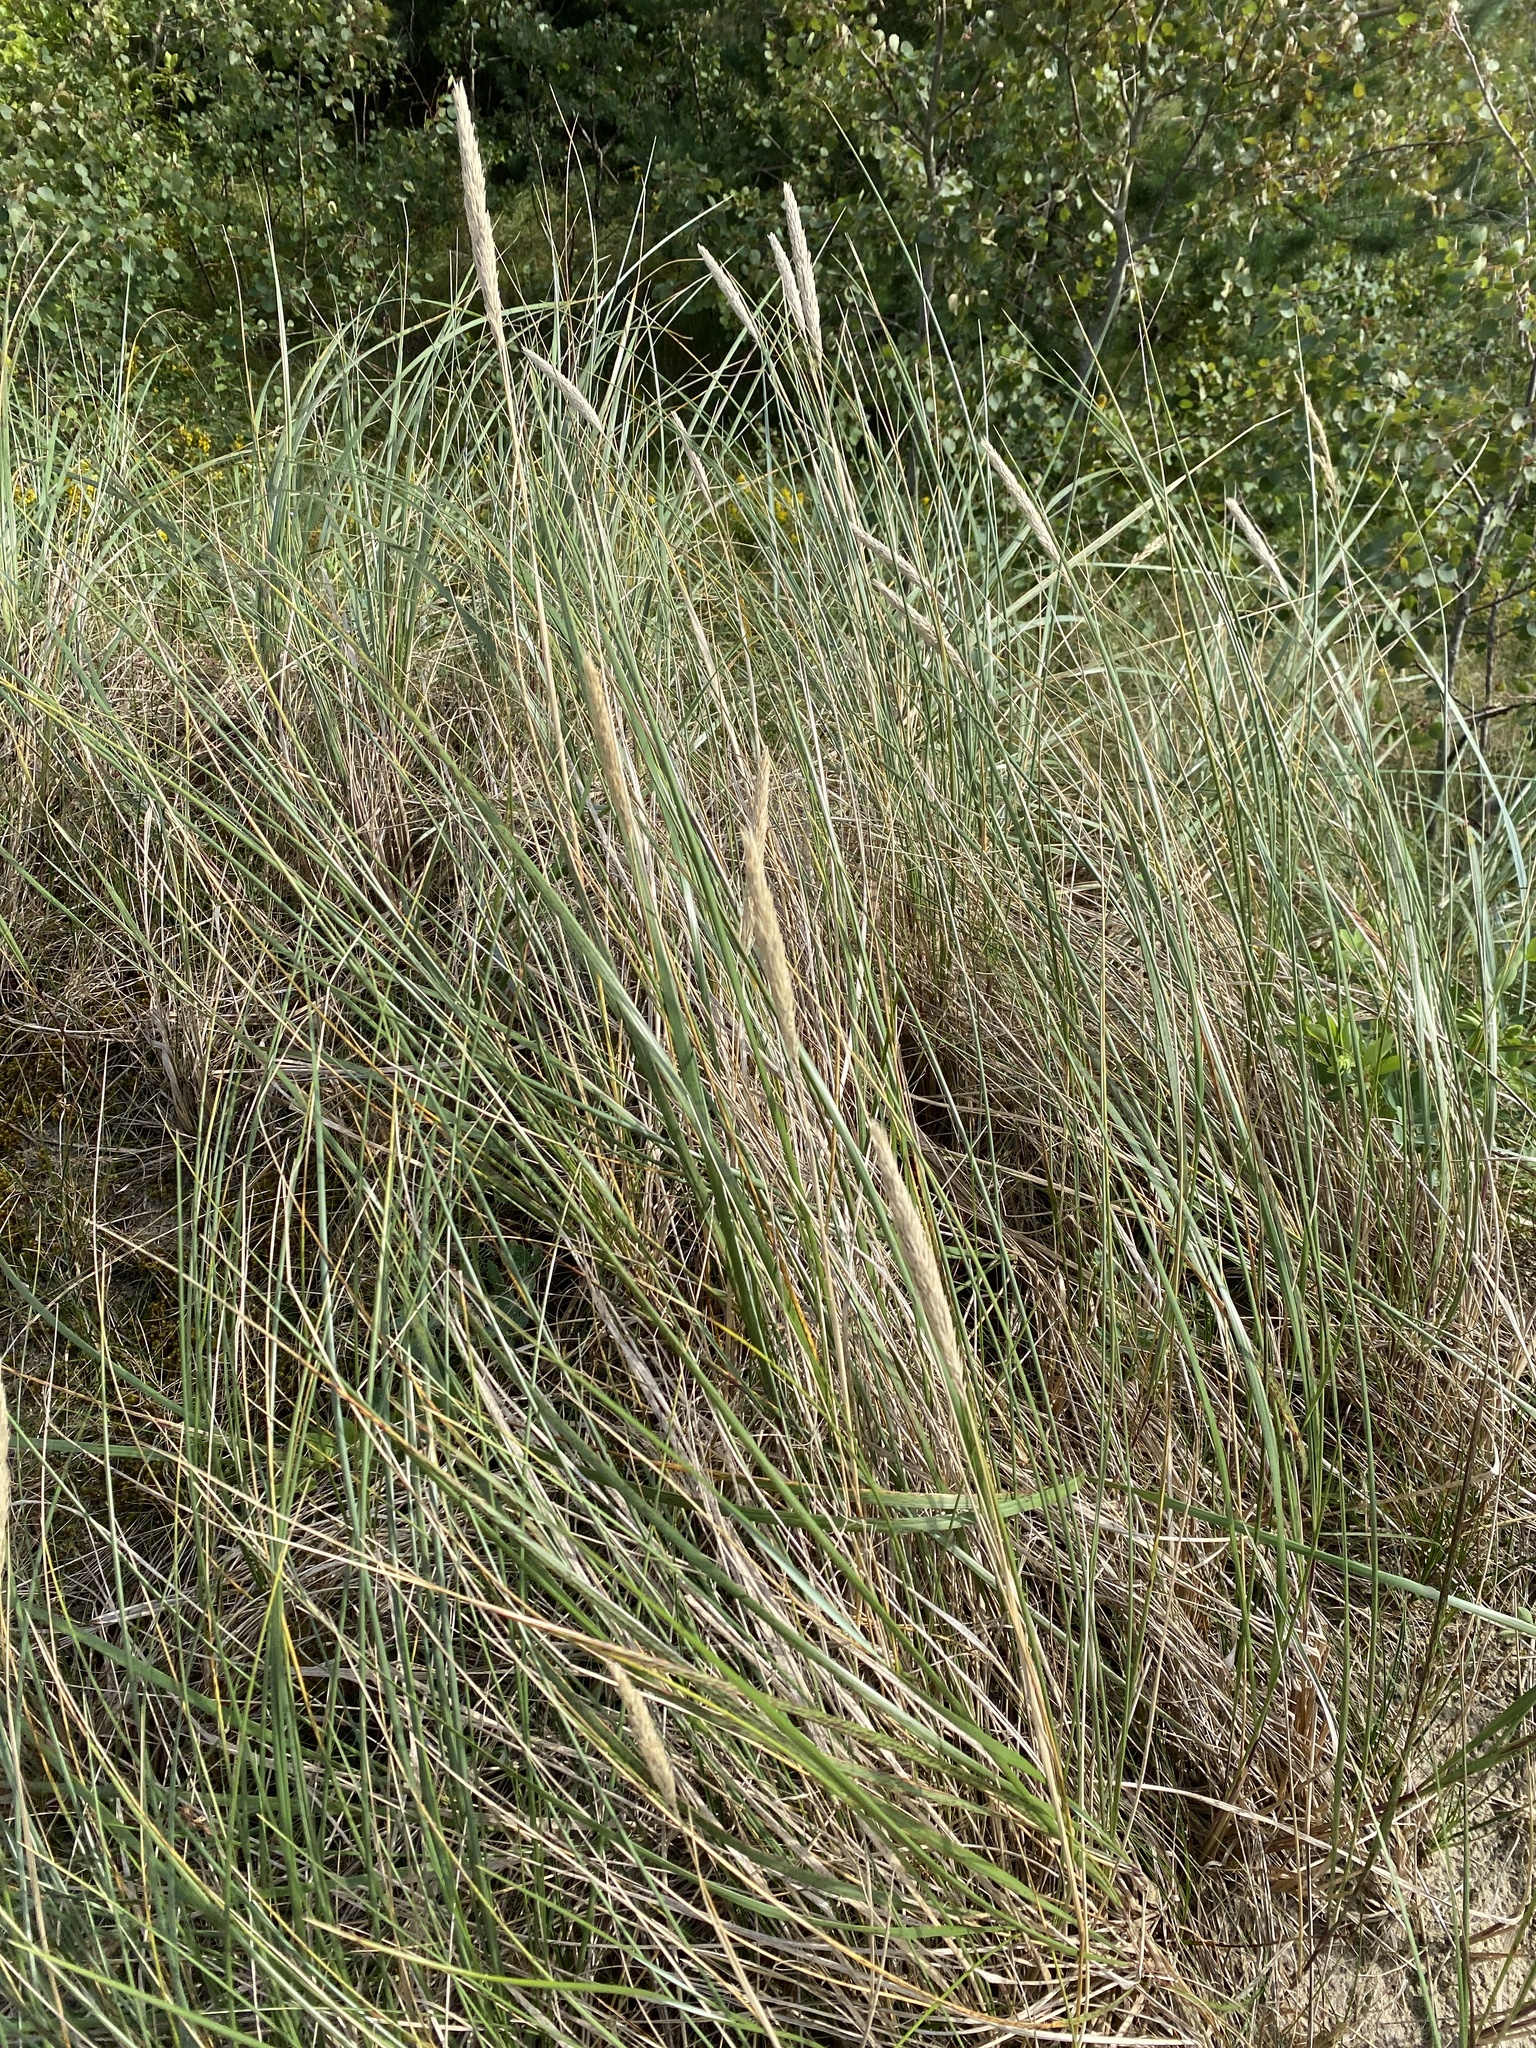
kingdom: Plantae
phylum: Tracheophyta
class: Liliopsida
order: Poales
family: Poaceae
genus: Calamagrostis
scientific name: Calamagrostis arenaria
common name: European beachgrass
